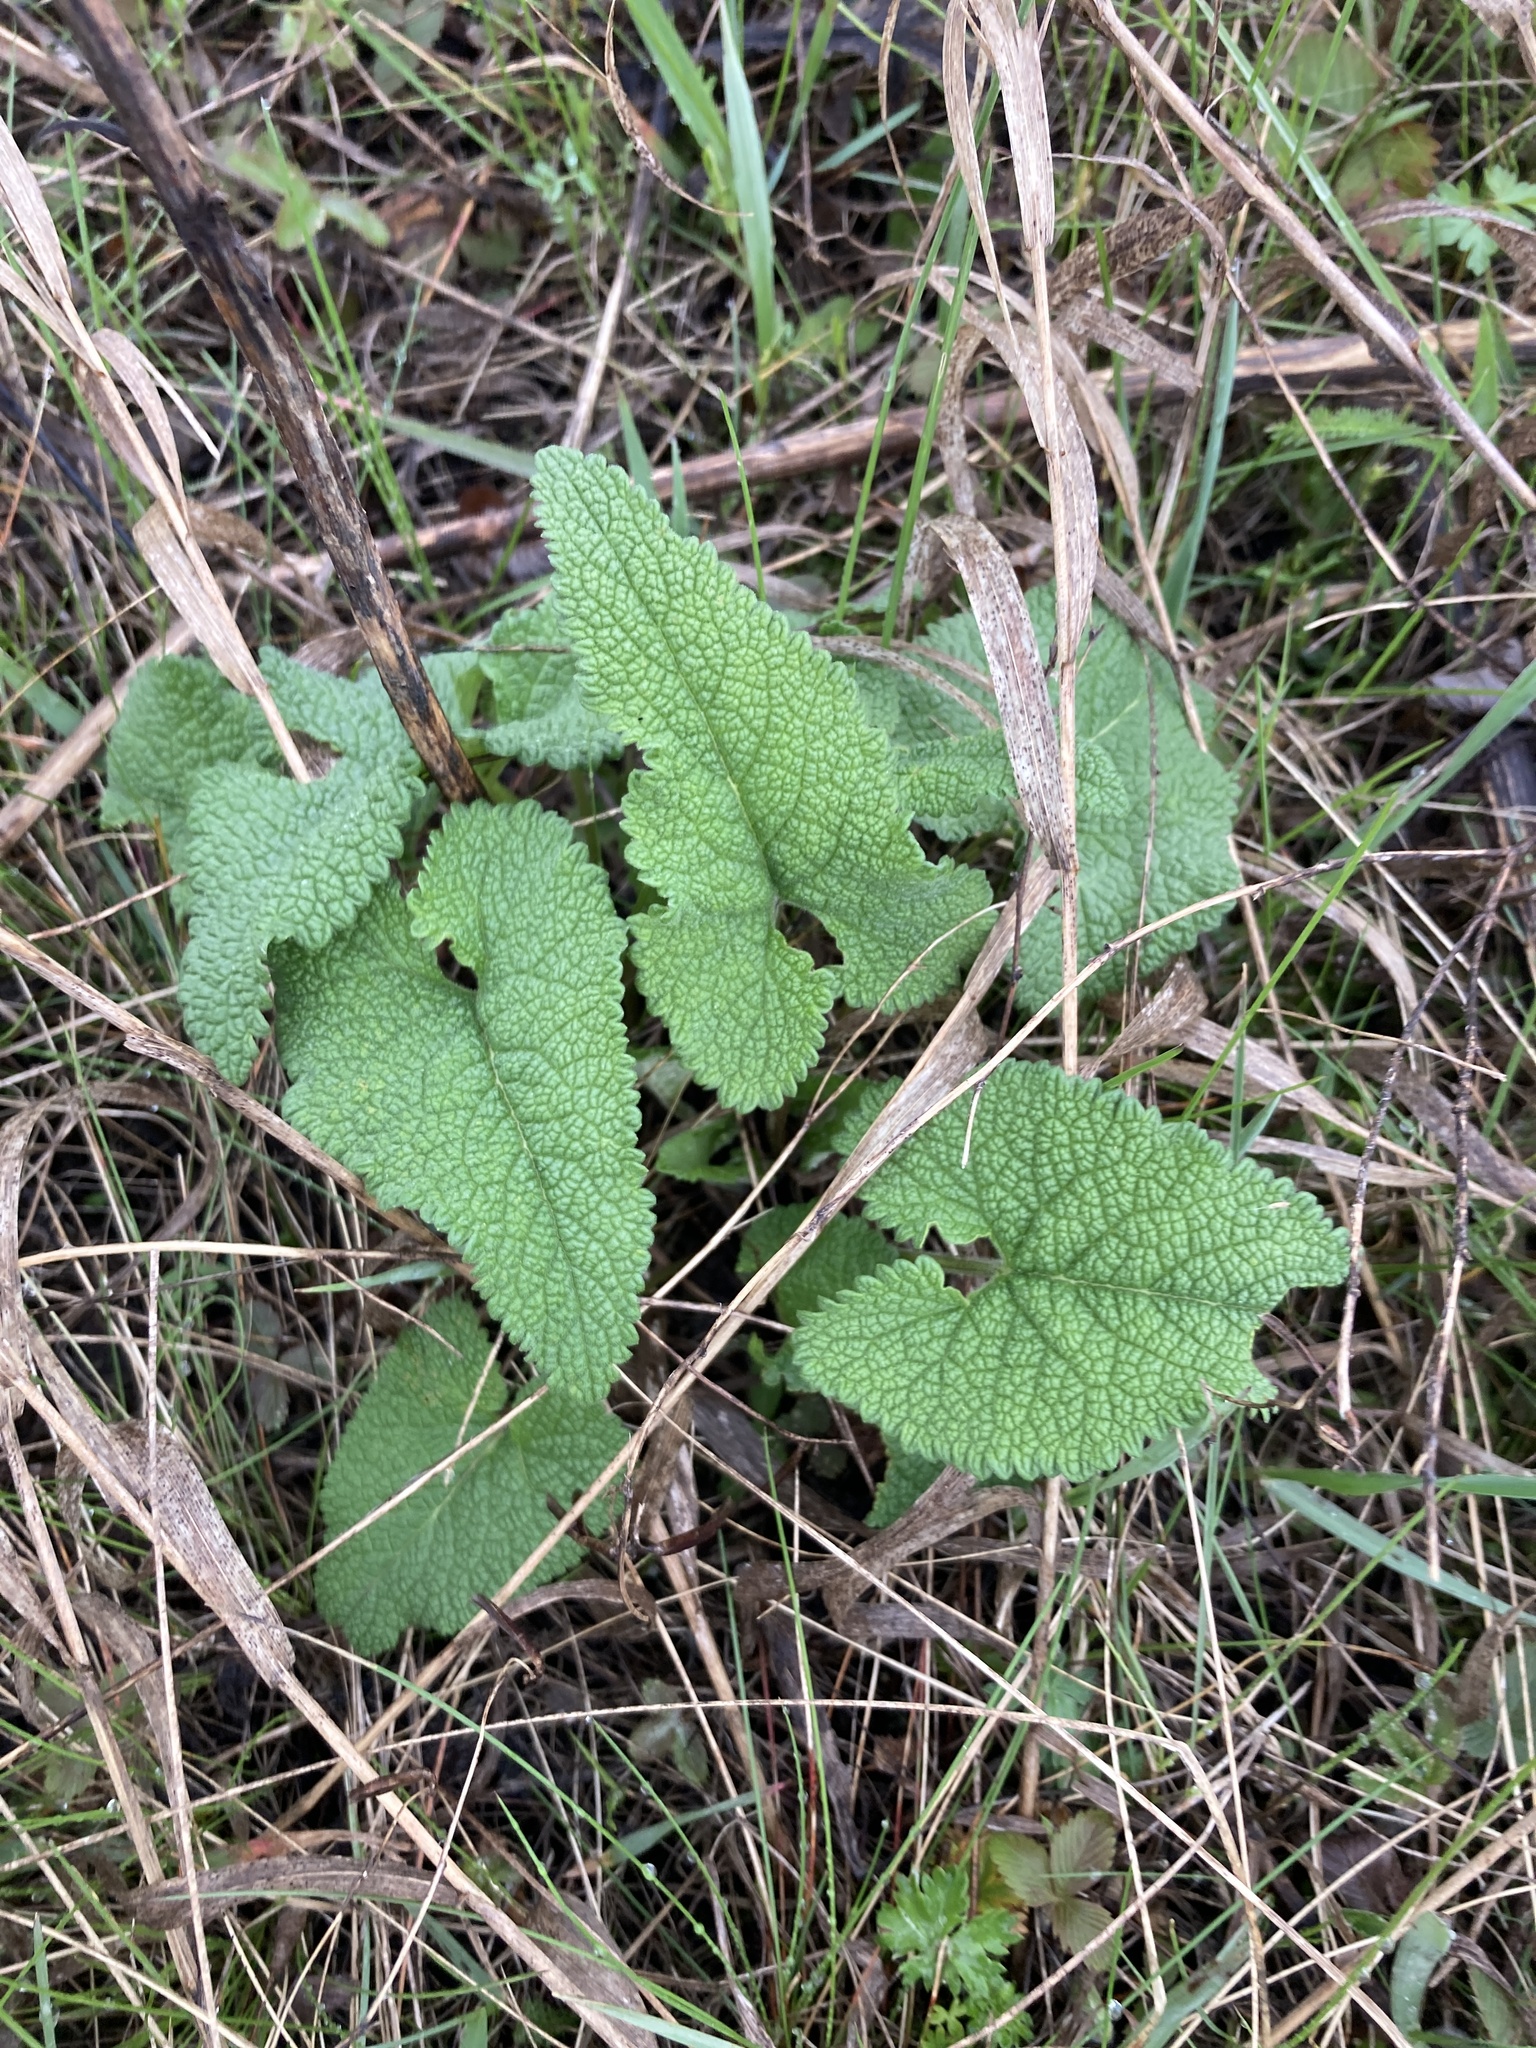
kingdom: Plantae
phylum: Tracheophyta
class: Magnoliopsida
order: Lamiales
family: Lamiaceae
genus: Phlomoides
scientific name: Phlomoides tuberosa
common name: Tuberous jerusalem sage
